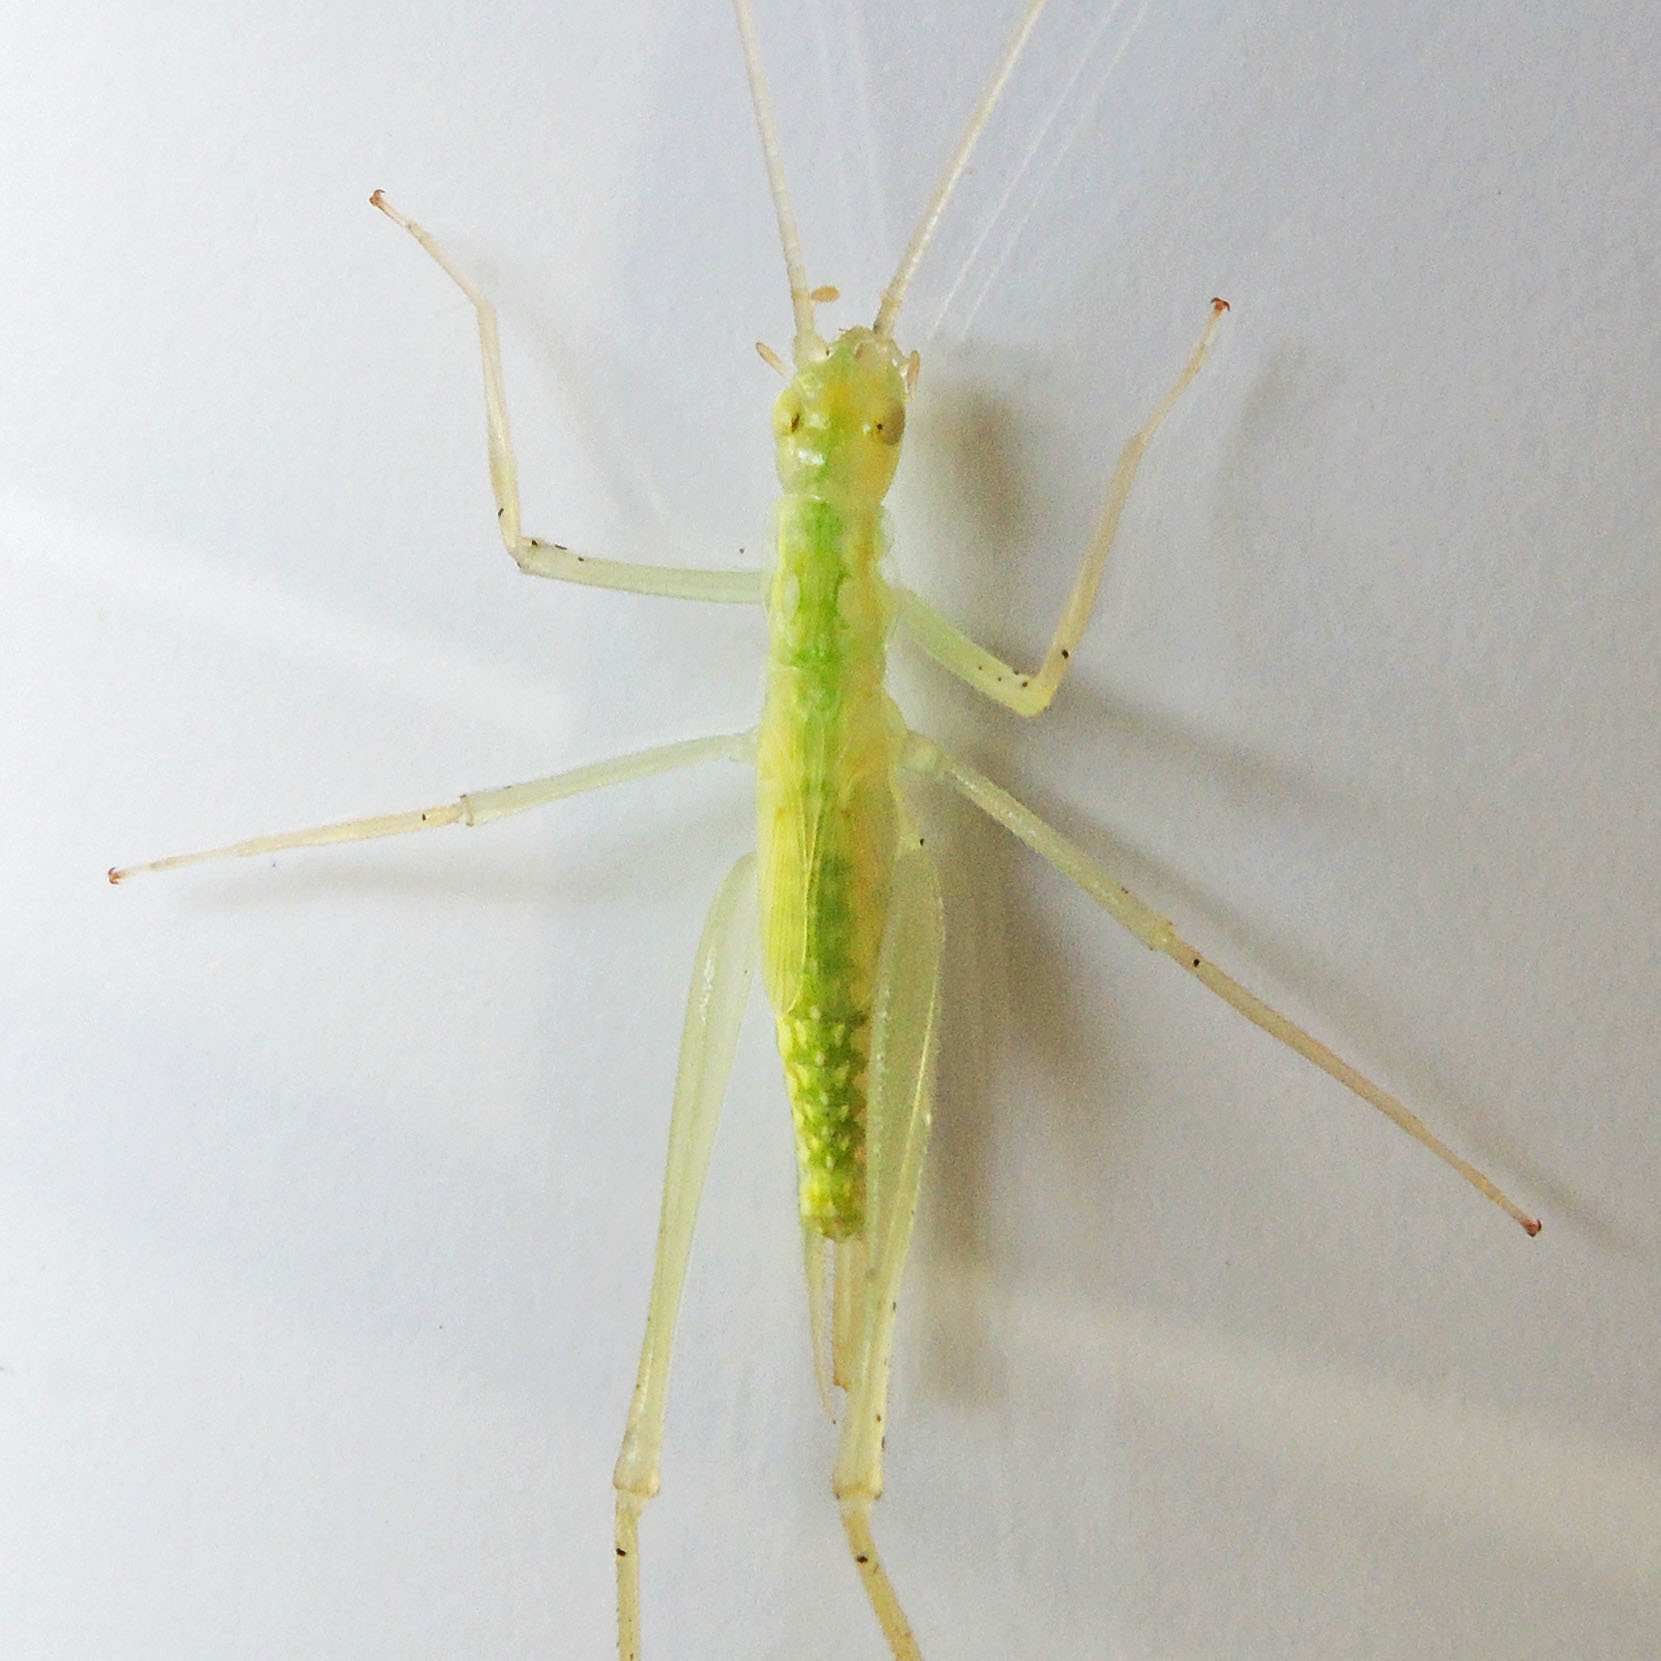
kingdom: Animalia
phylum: Arthropoda
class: Insecta
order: Orthoptera
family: Gryllidae
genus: Oecanthus
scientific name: Oecanthus niveus
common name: Narrow-winged tree cricket
